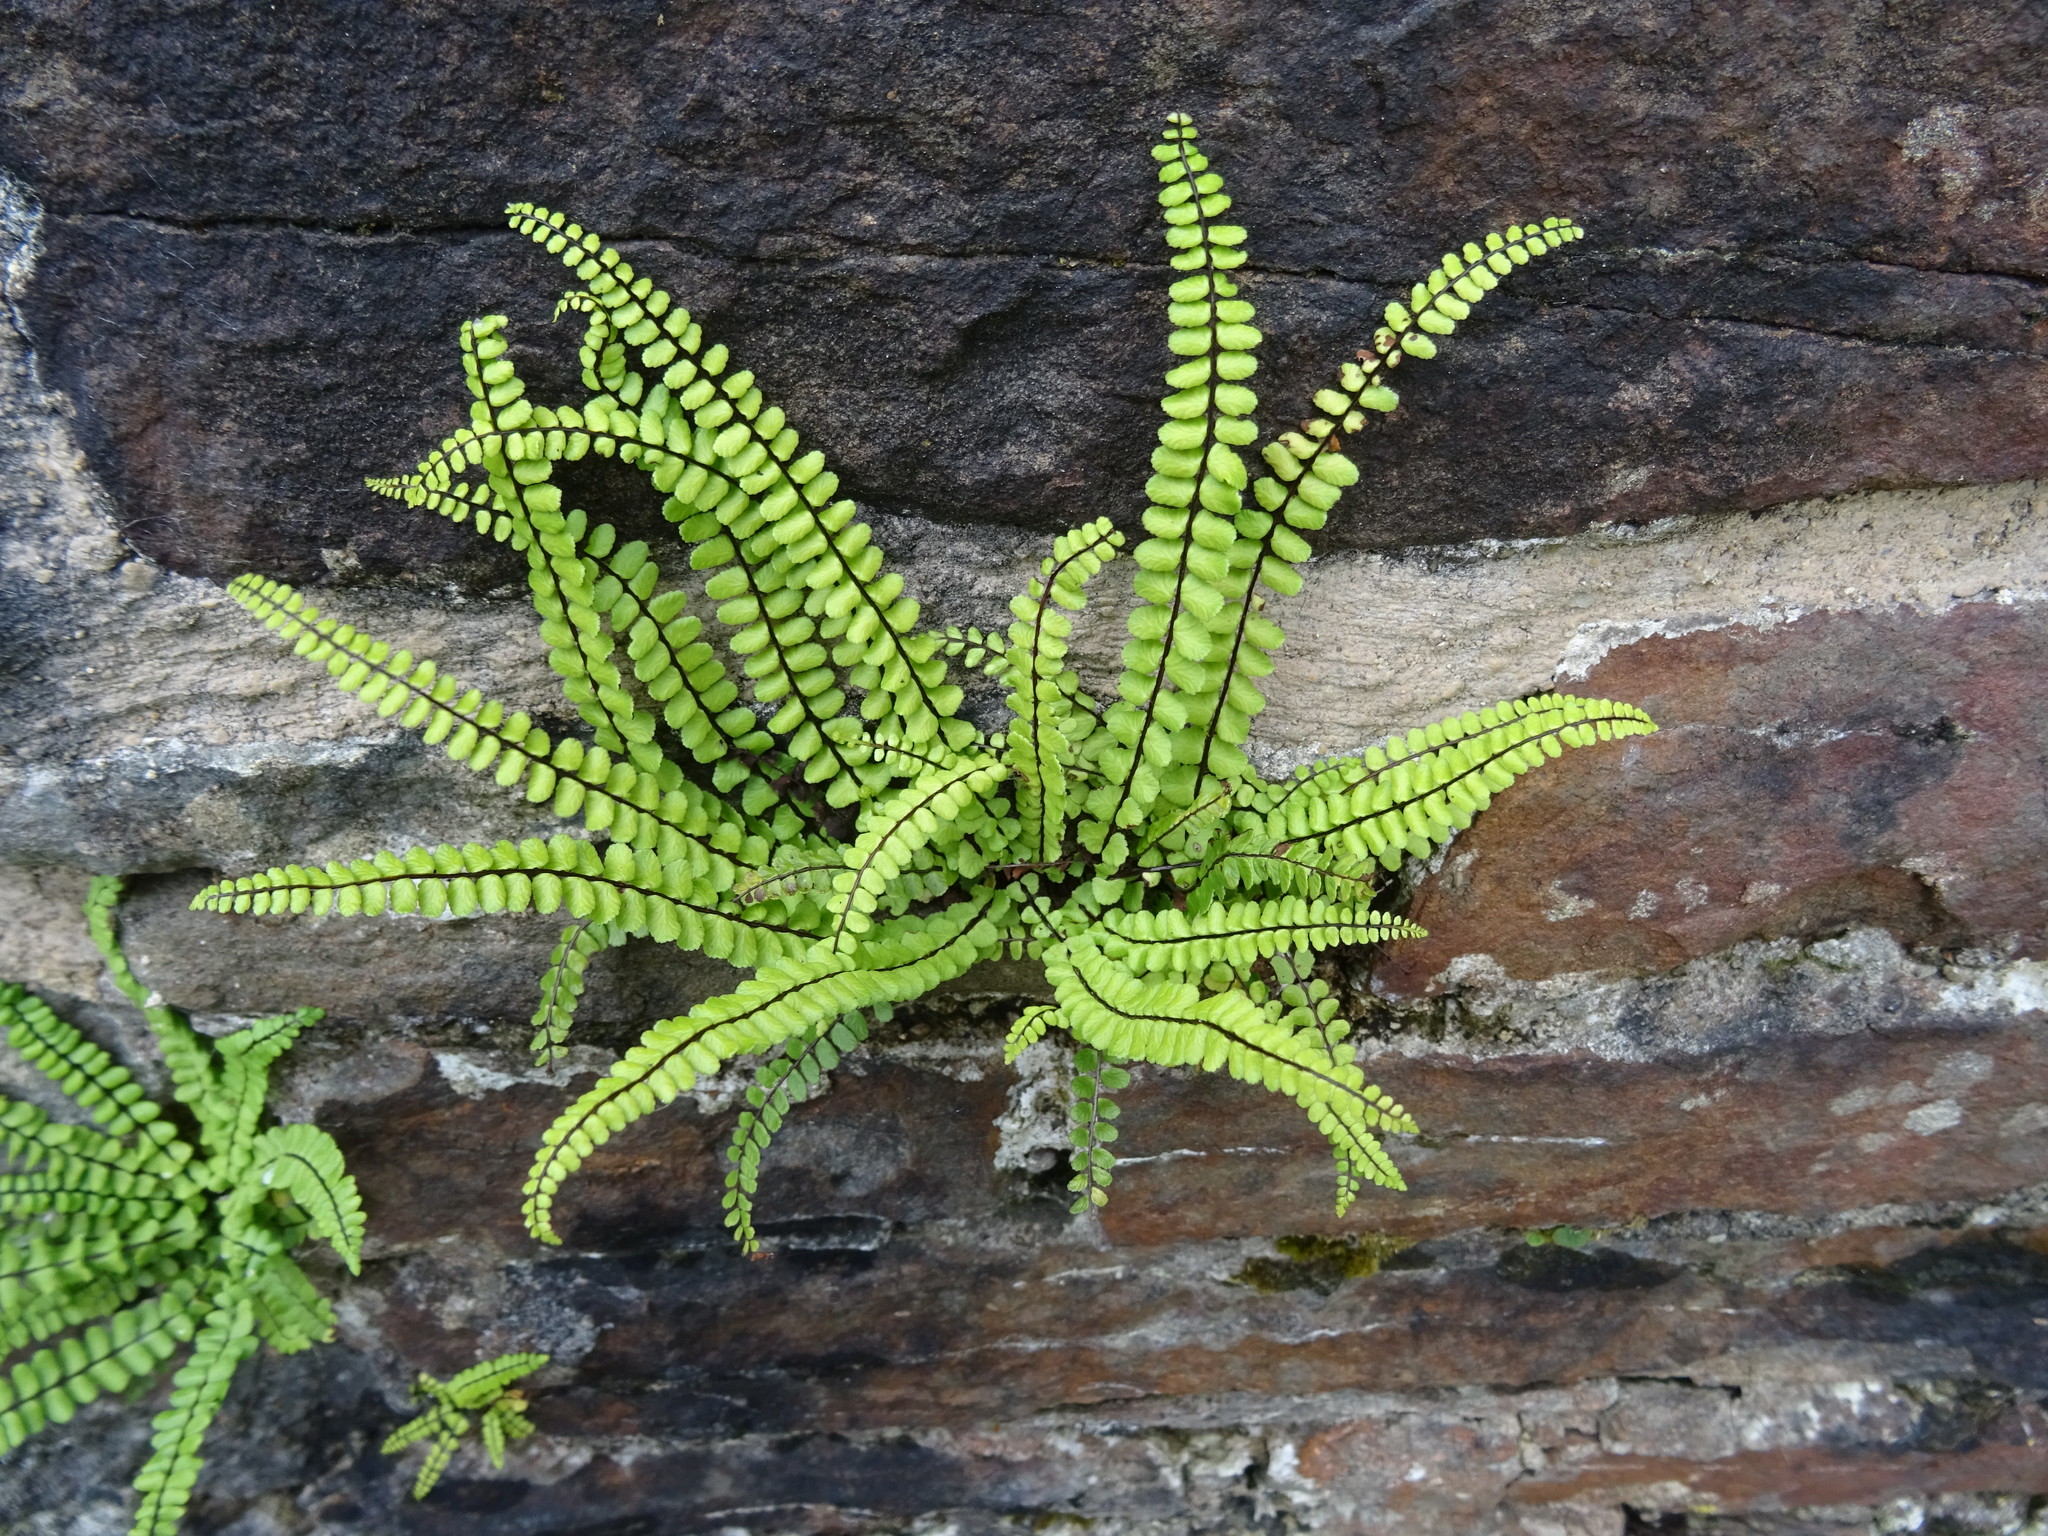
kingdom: Plantae
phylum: Tracheophyta
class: Polypodiopsida
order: Polypodiales
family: Aspleniaceae
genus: Asplenium
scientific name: Asplenium trichomanes
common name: Maidenhair spleenwort
